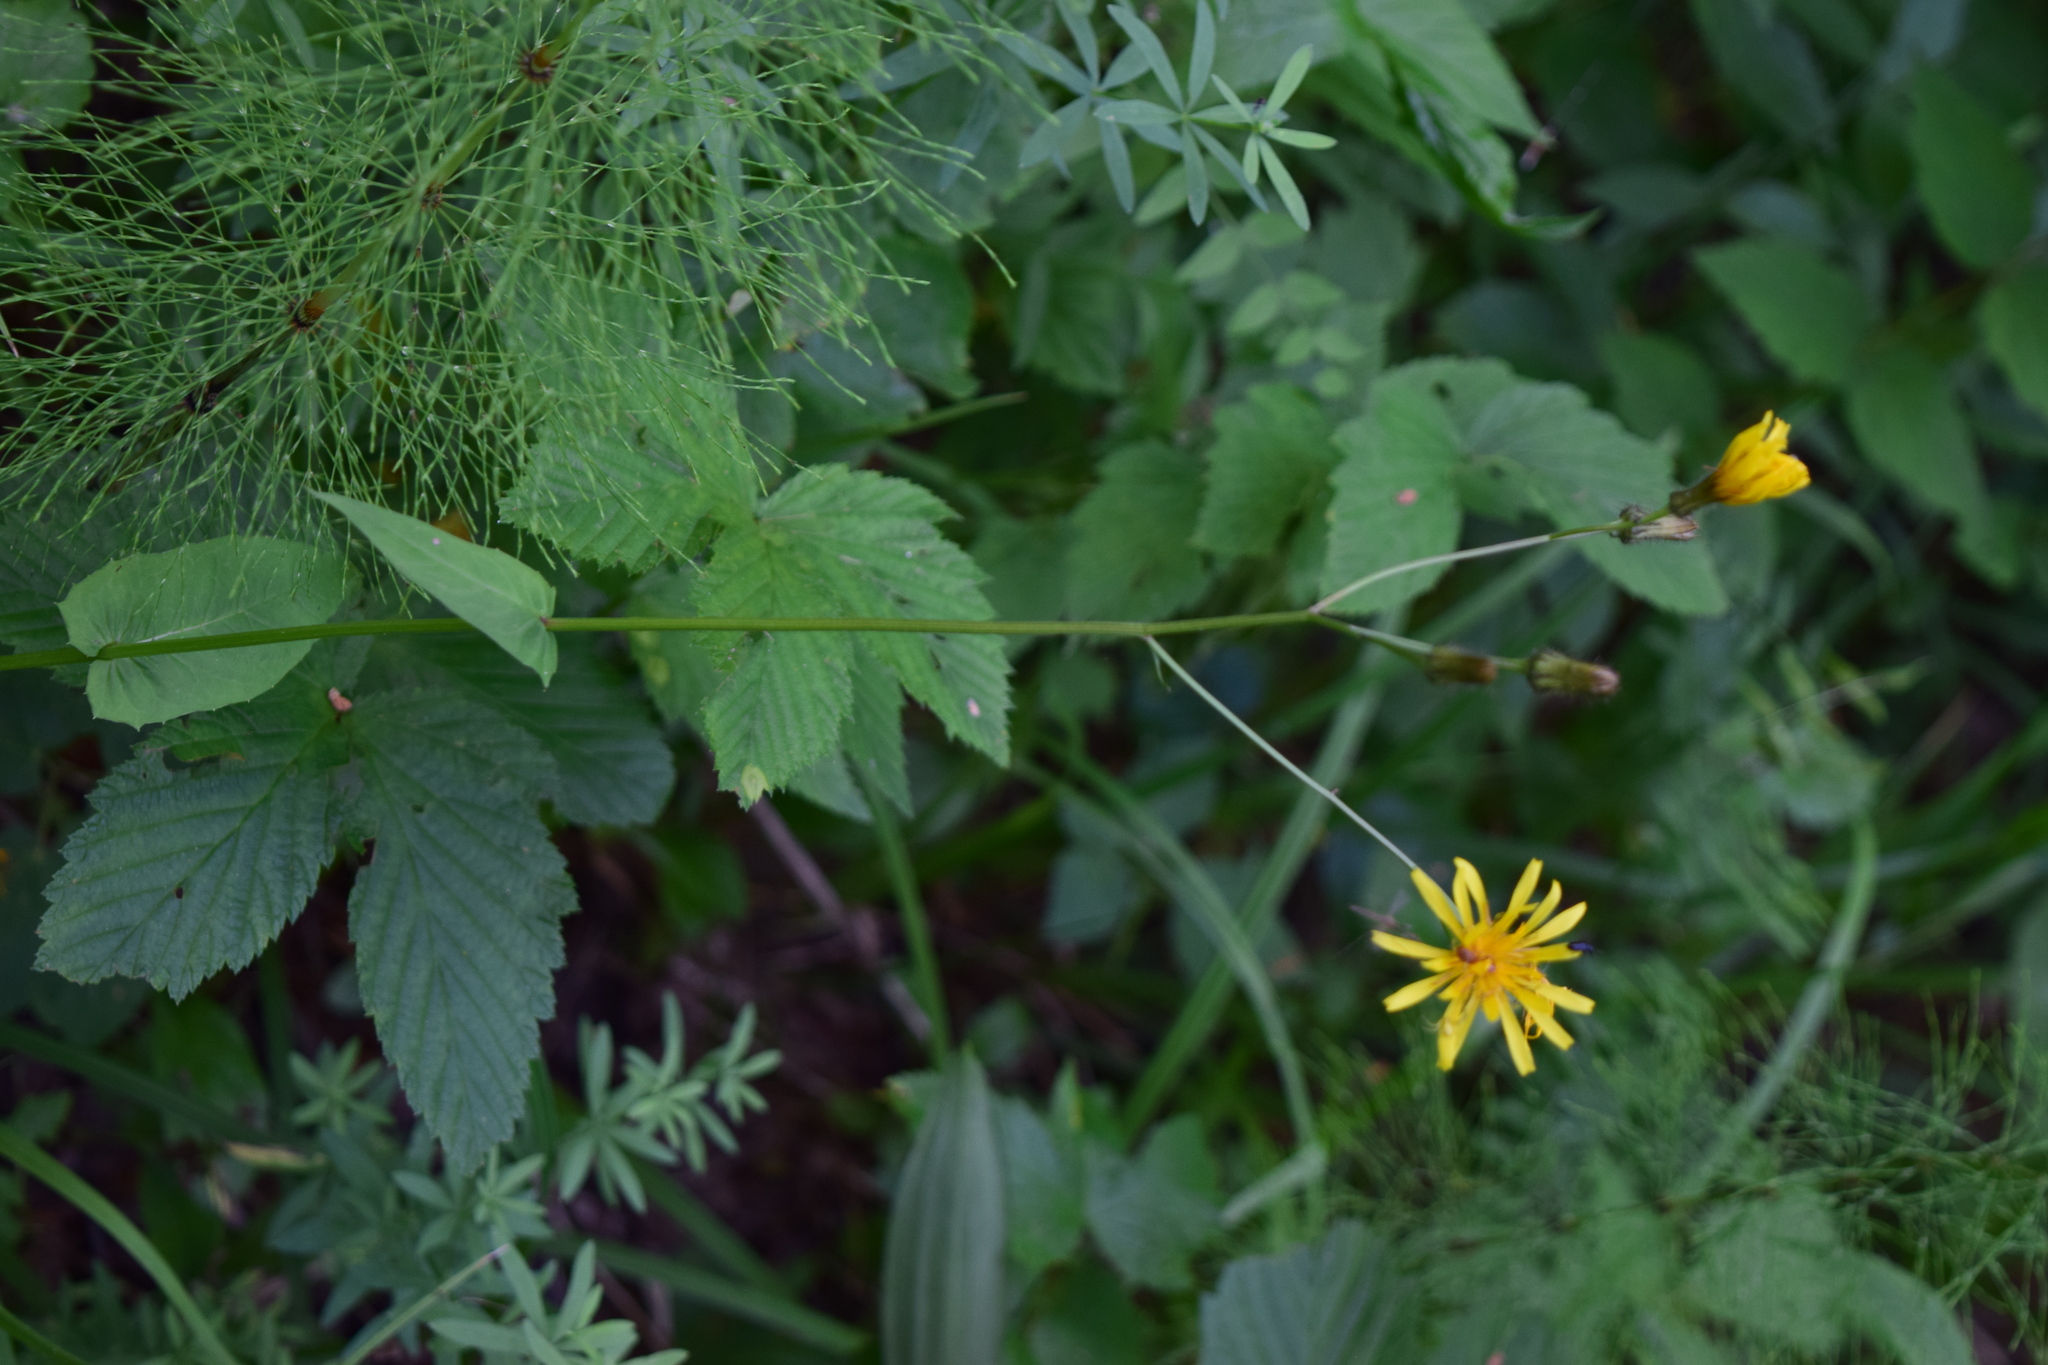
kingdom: Plantae
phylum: Tracheophyta
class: Magnoliopsida
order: Asterales
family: Asteraceae
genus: Crepis
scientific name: Crepis paludosa
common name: Marsh hawk's-beard
